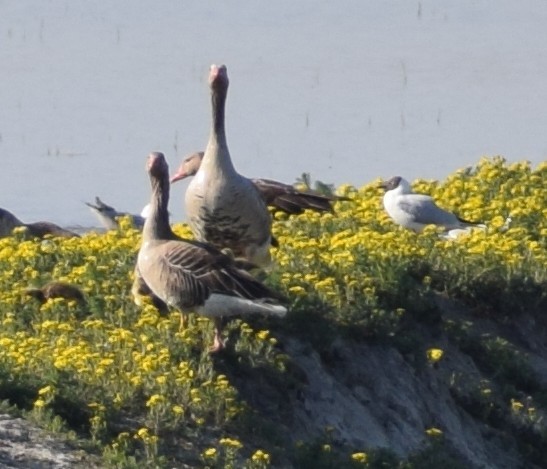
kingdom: Animalia
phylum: Chordata
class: Aves
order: Anseriformes
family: Anatidae
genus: Anser
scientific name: Anser anser
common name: Greylag goose
